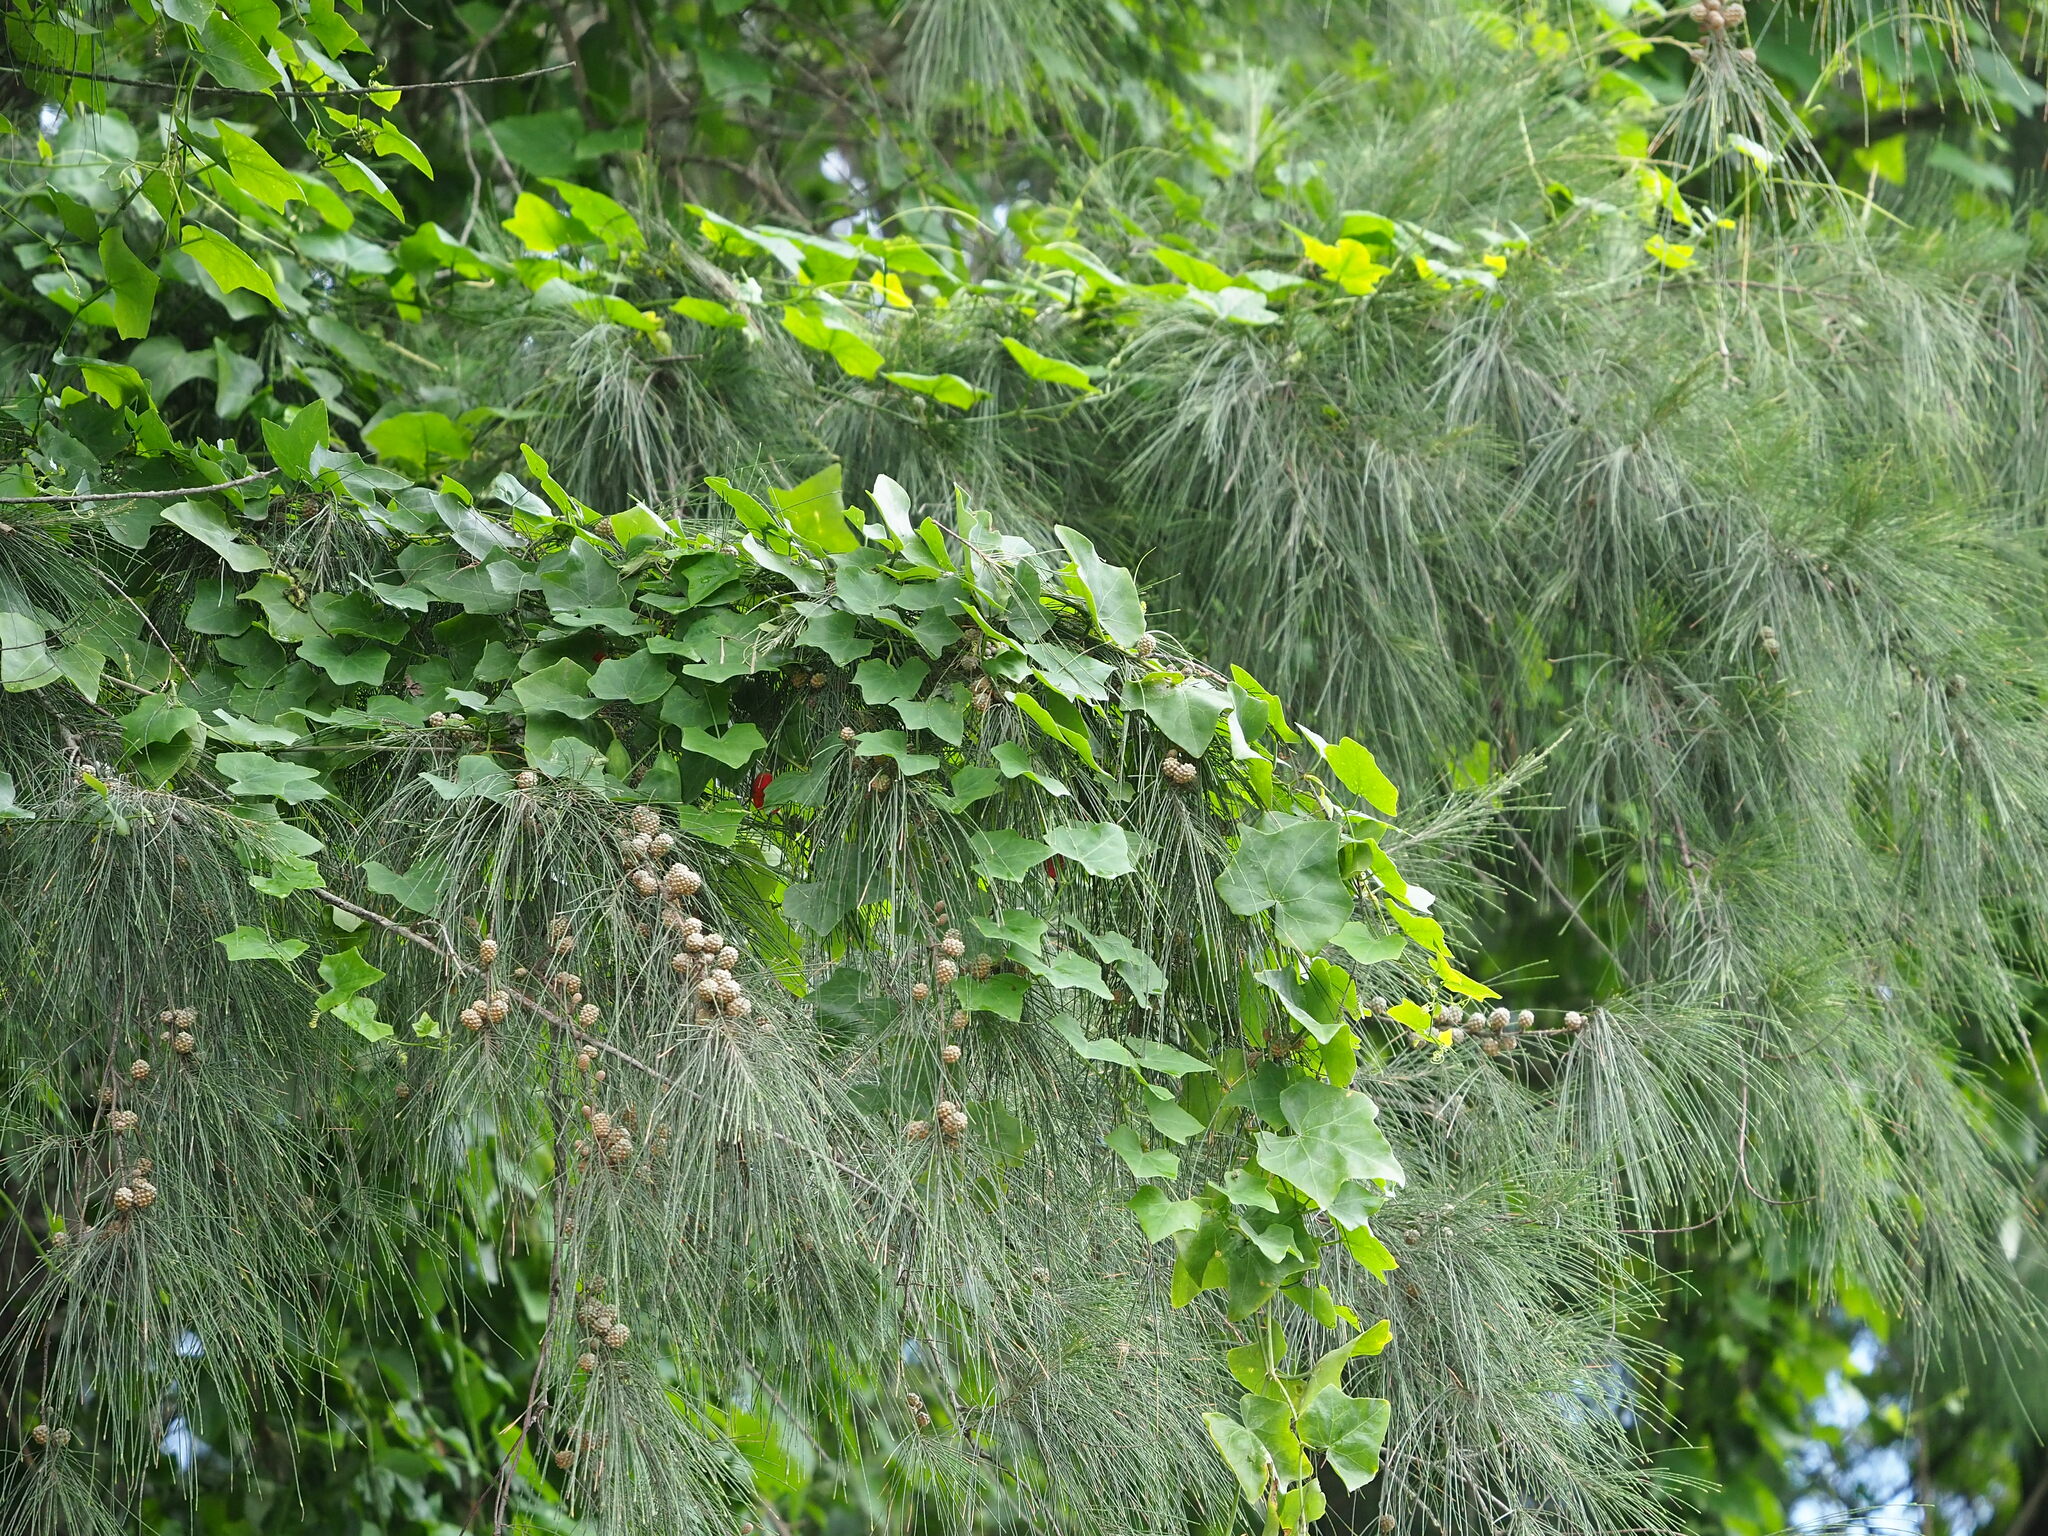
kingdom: Plantae
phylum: Tracheophyta
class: Magnoliopsida
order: Cucurbitales
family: Cucurbitaceae
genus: Coccinia
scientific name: Coccinia grandis
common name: Ivy gourd
